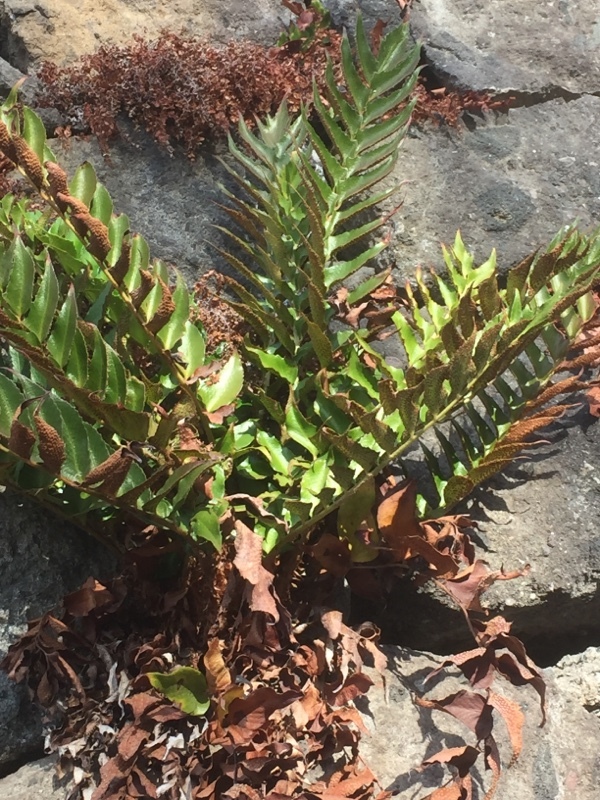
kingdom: Plantae
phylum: Tracheophyta
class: Polypodiopsida
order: Polypodiales
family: Dryopteridaceae
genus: Cyrtomium
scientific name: Cyrtomium falcatum
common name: House holly-fern
